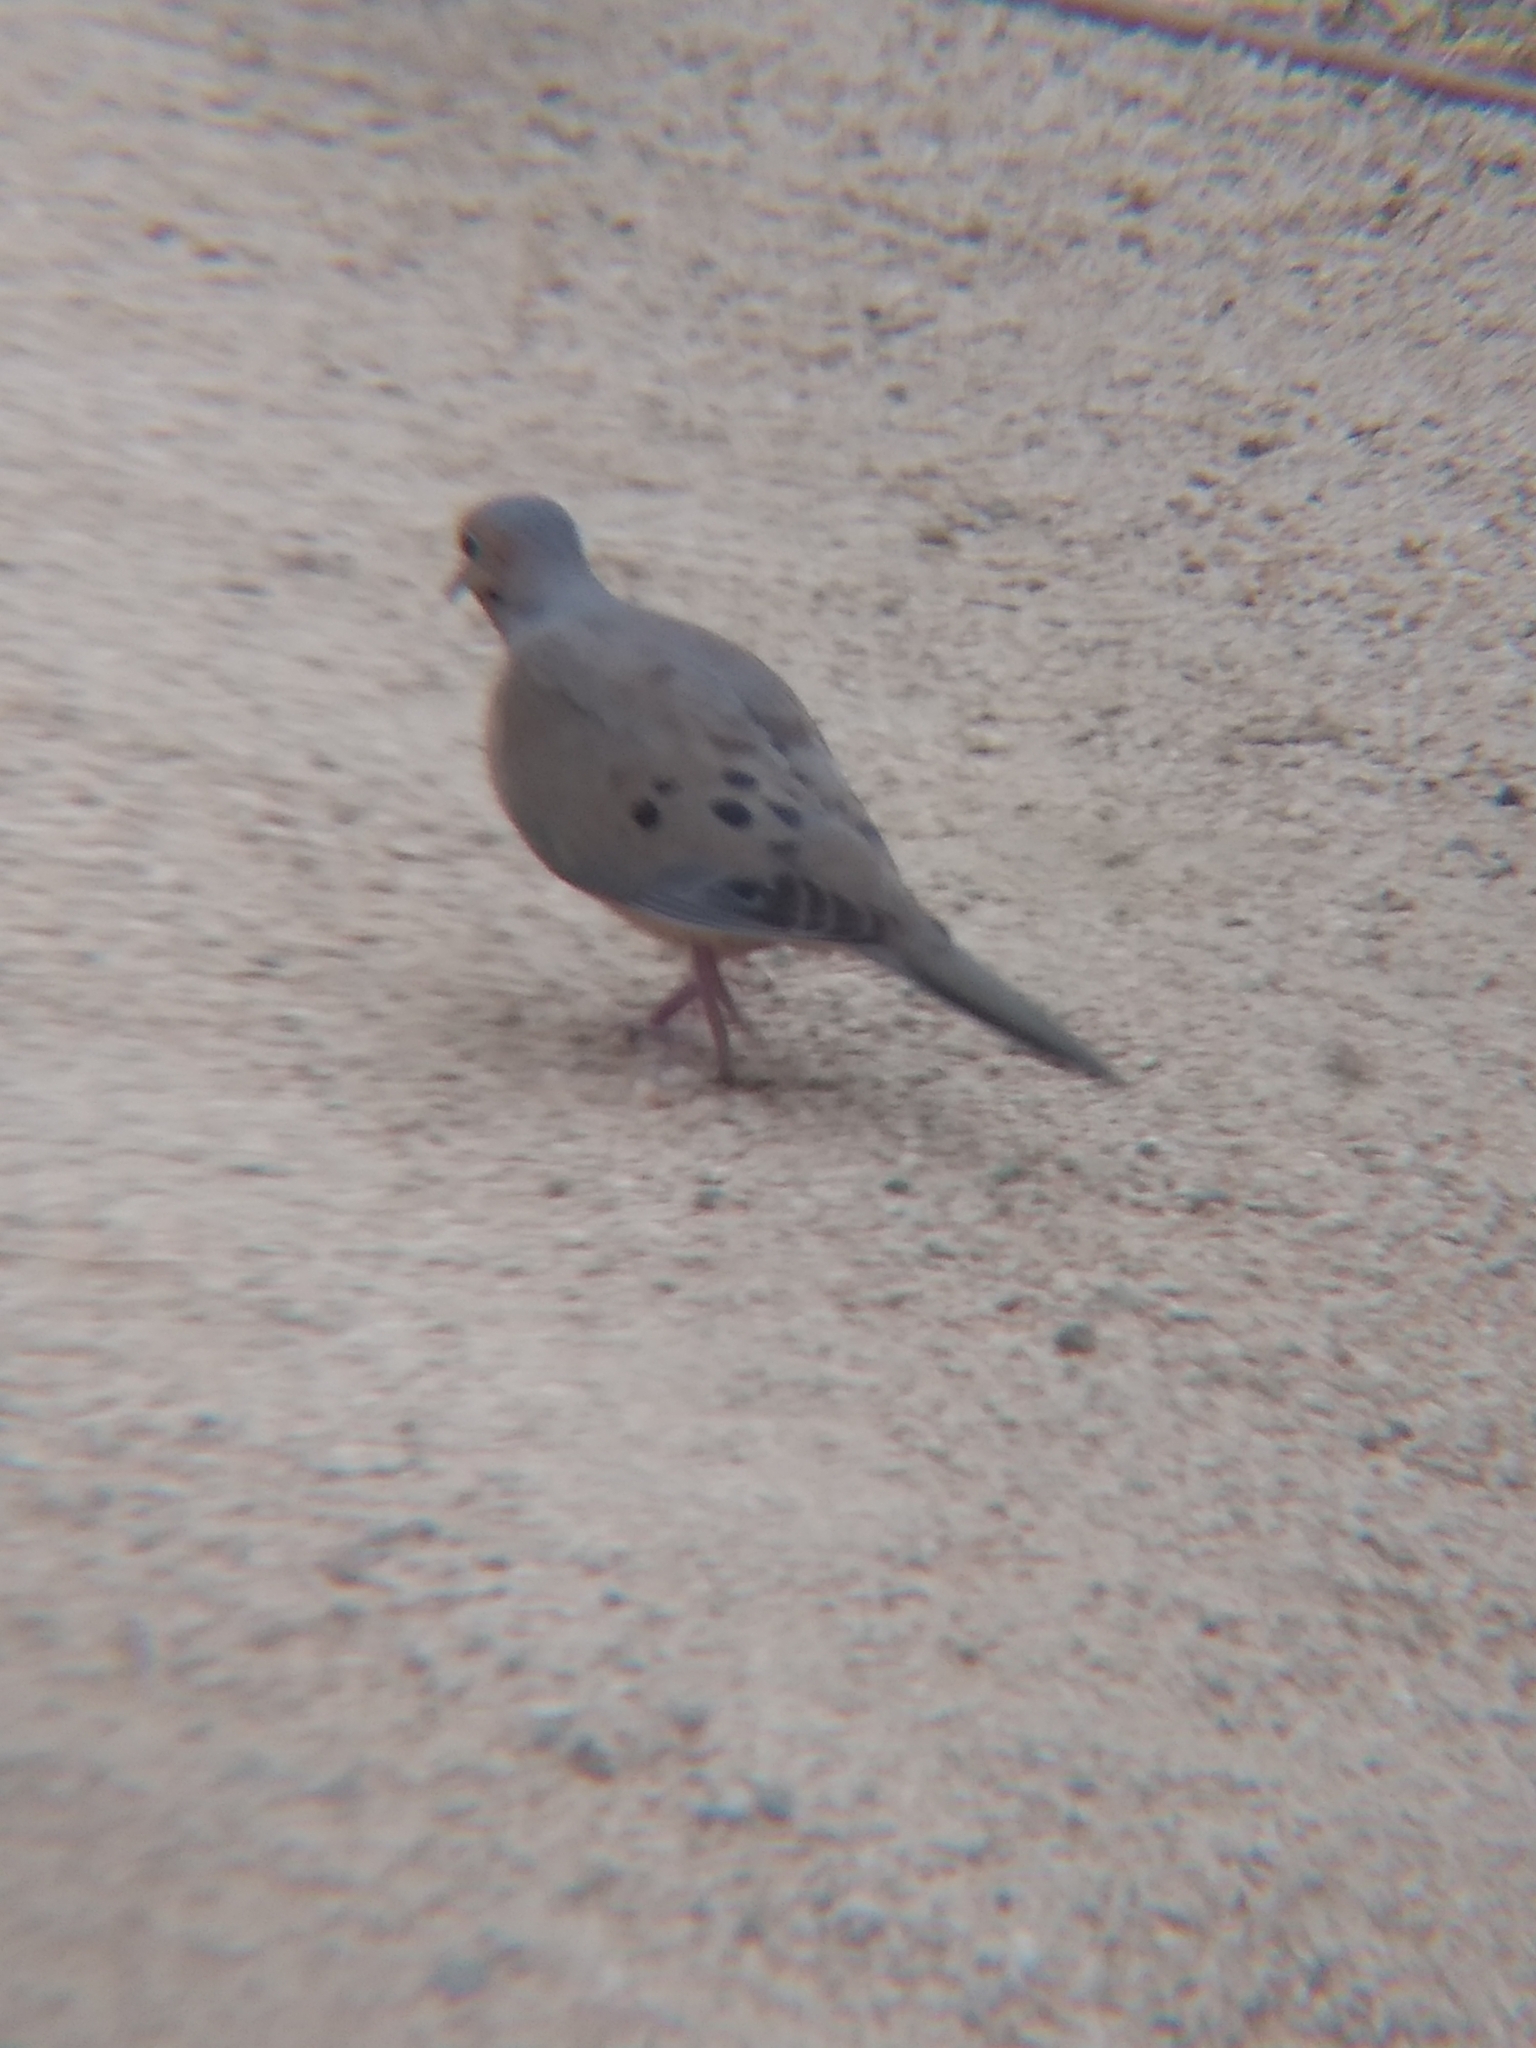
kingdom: Animalia
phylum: Chordata
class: Aves
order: Columbiformes
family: Columbidae
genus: Zenaida
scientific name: Zenaida macroura
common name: Mourning dove
